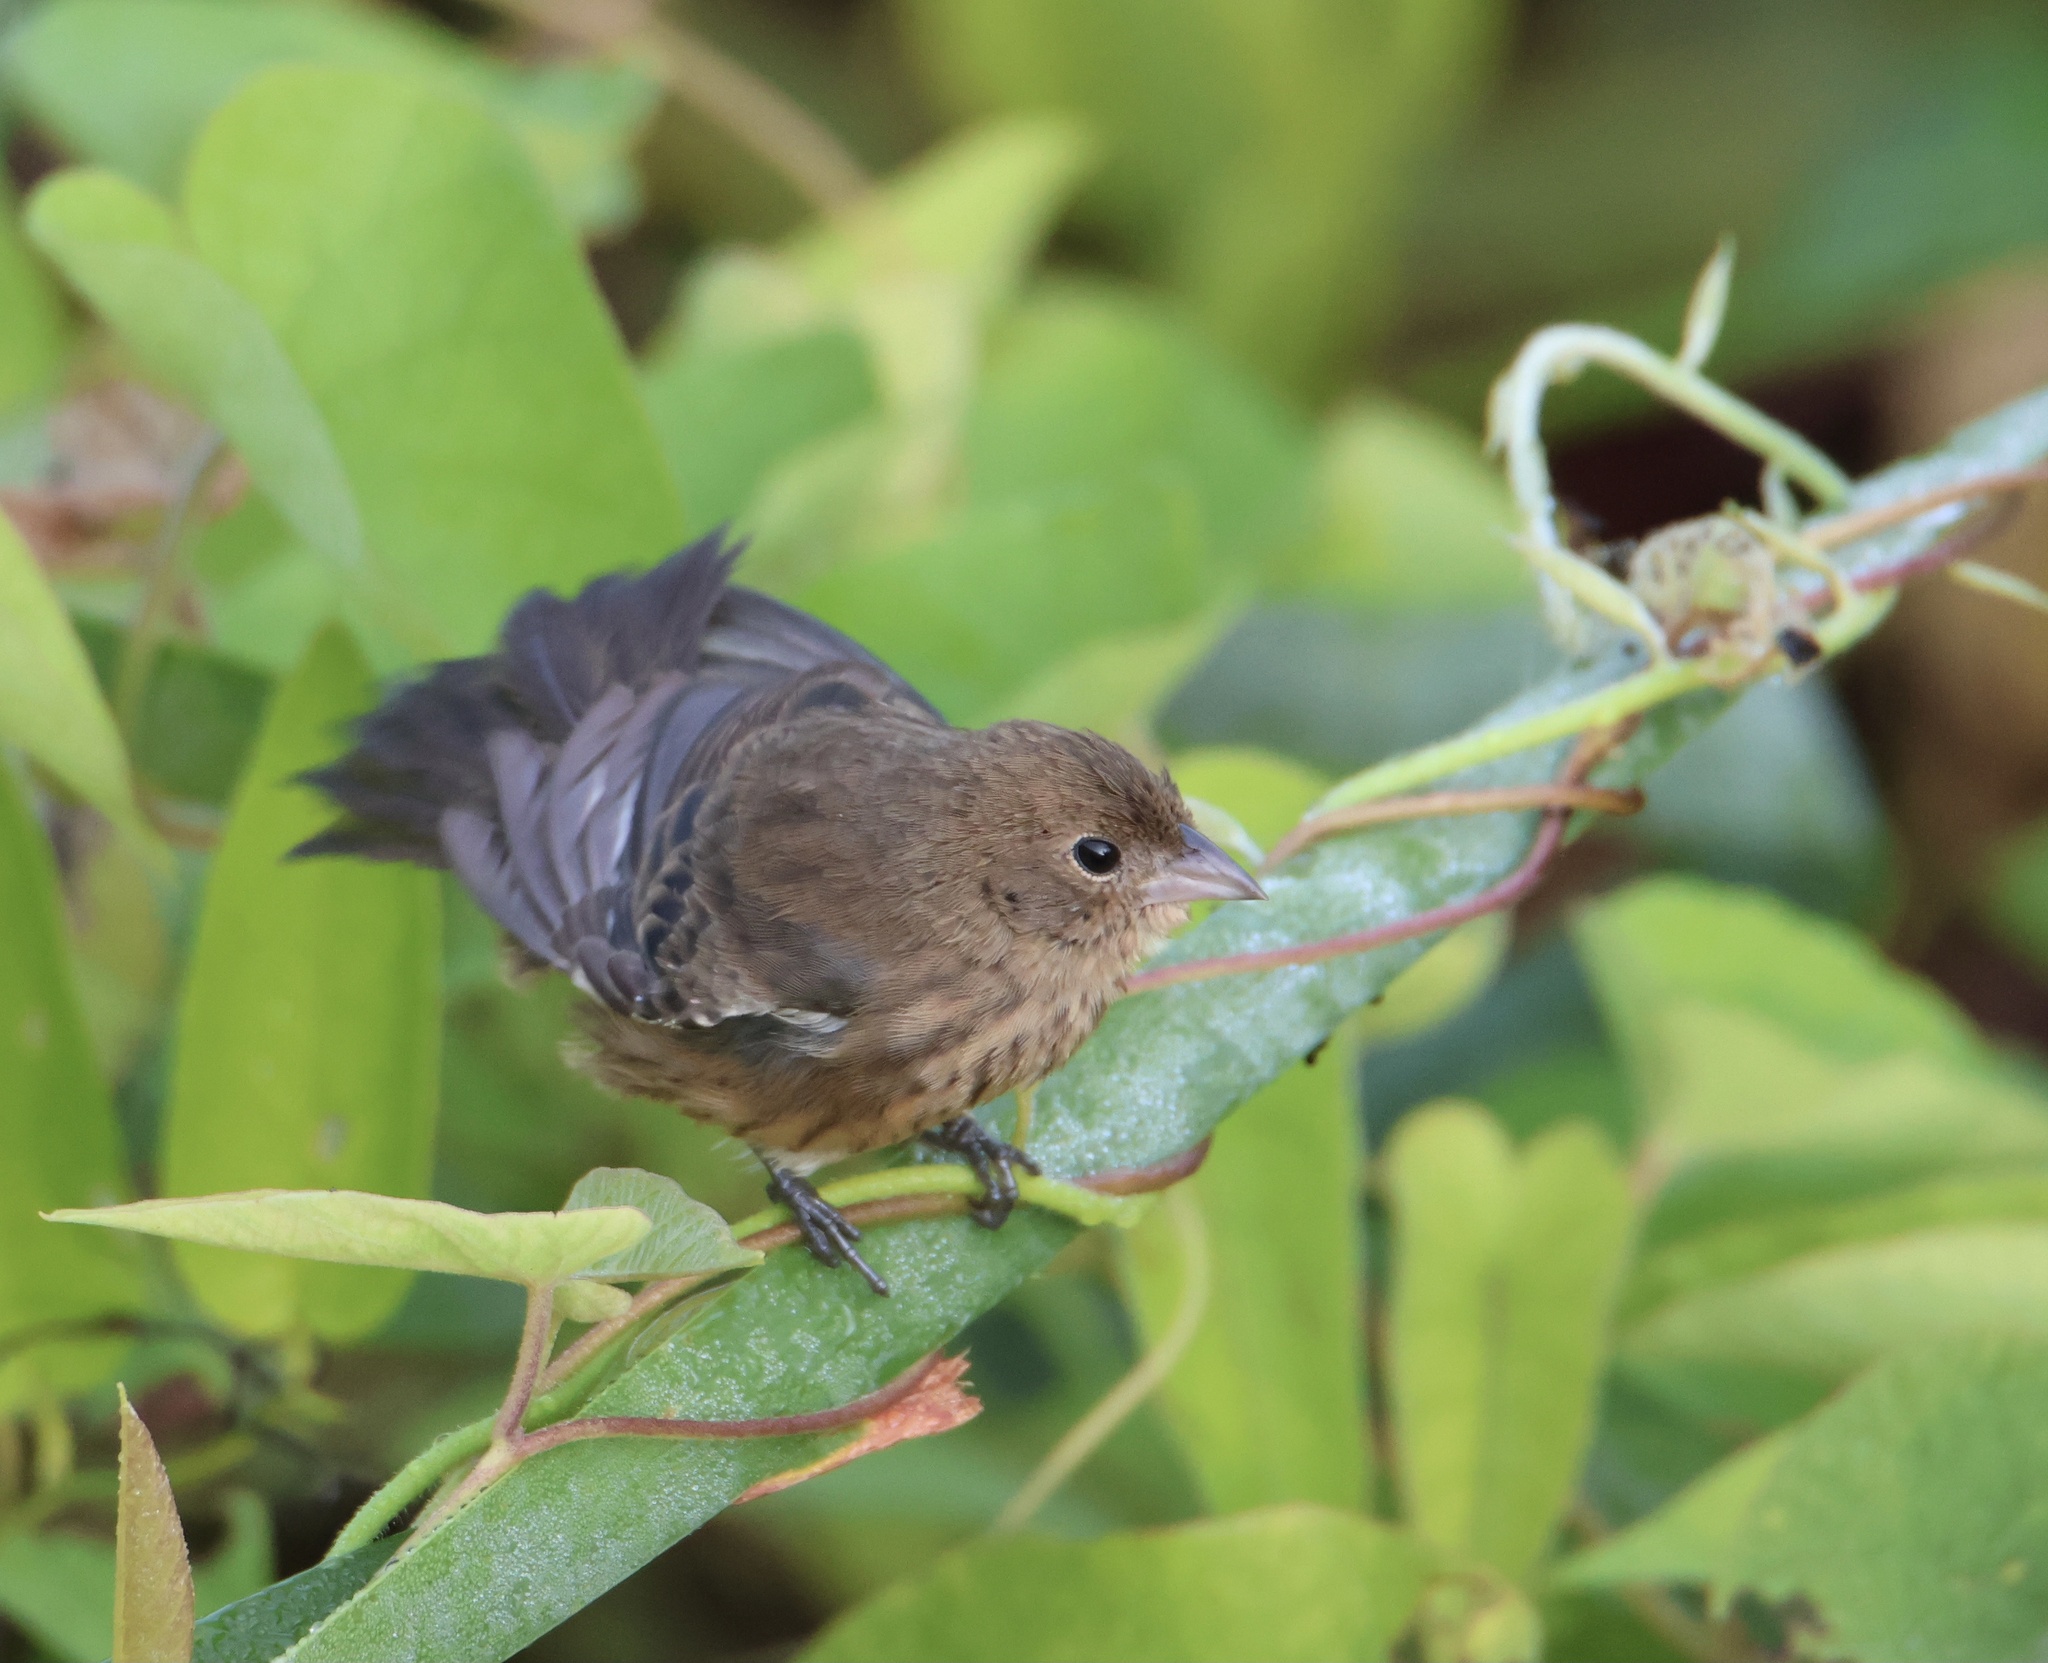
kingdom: Animalia
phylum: Chordata
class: Aves
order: Passeriformes
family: Thraupidae
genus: Volatinia
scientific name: Volatinia jacarina
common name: Blue-black grassquit
